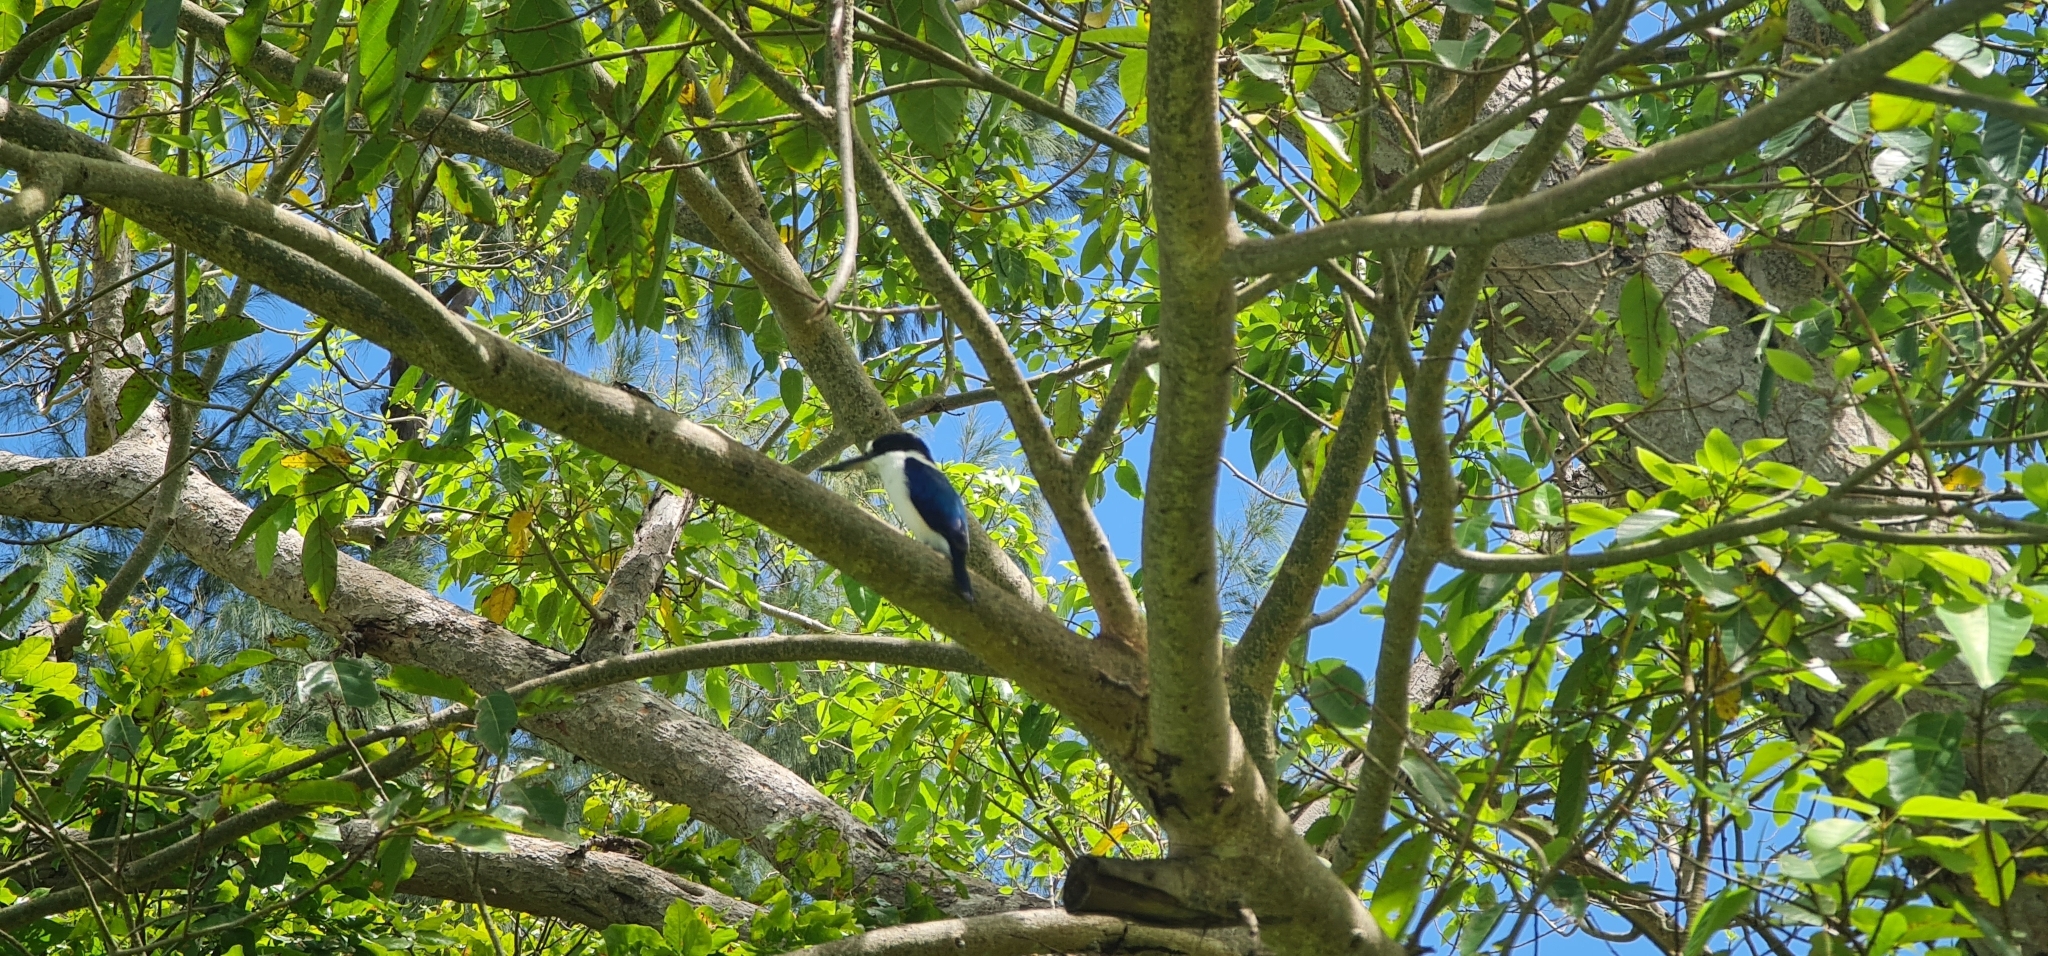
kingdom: Animalia
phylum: Chordata
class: Aves
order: Coraciiformes
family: Alcedinidae
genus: Todiramphus
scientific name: Todiramphus macleayii
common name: Forest kingfisher
